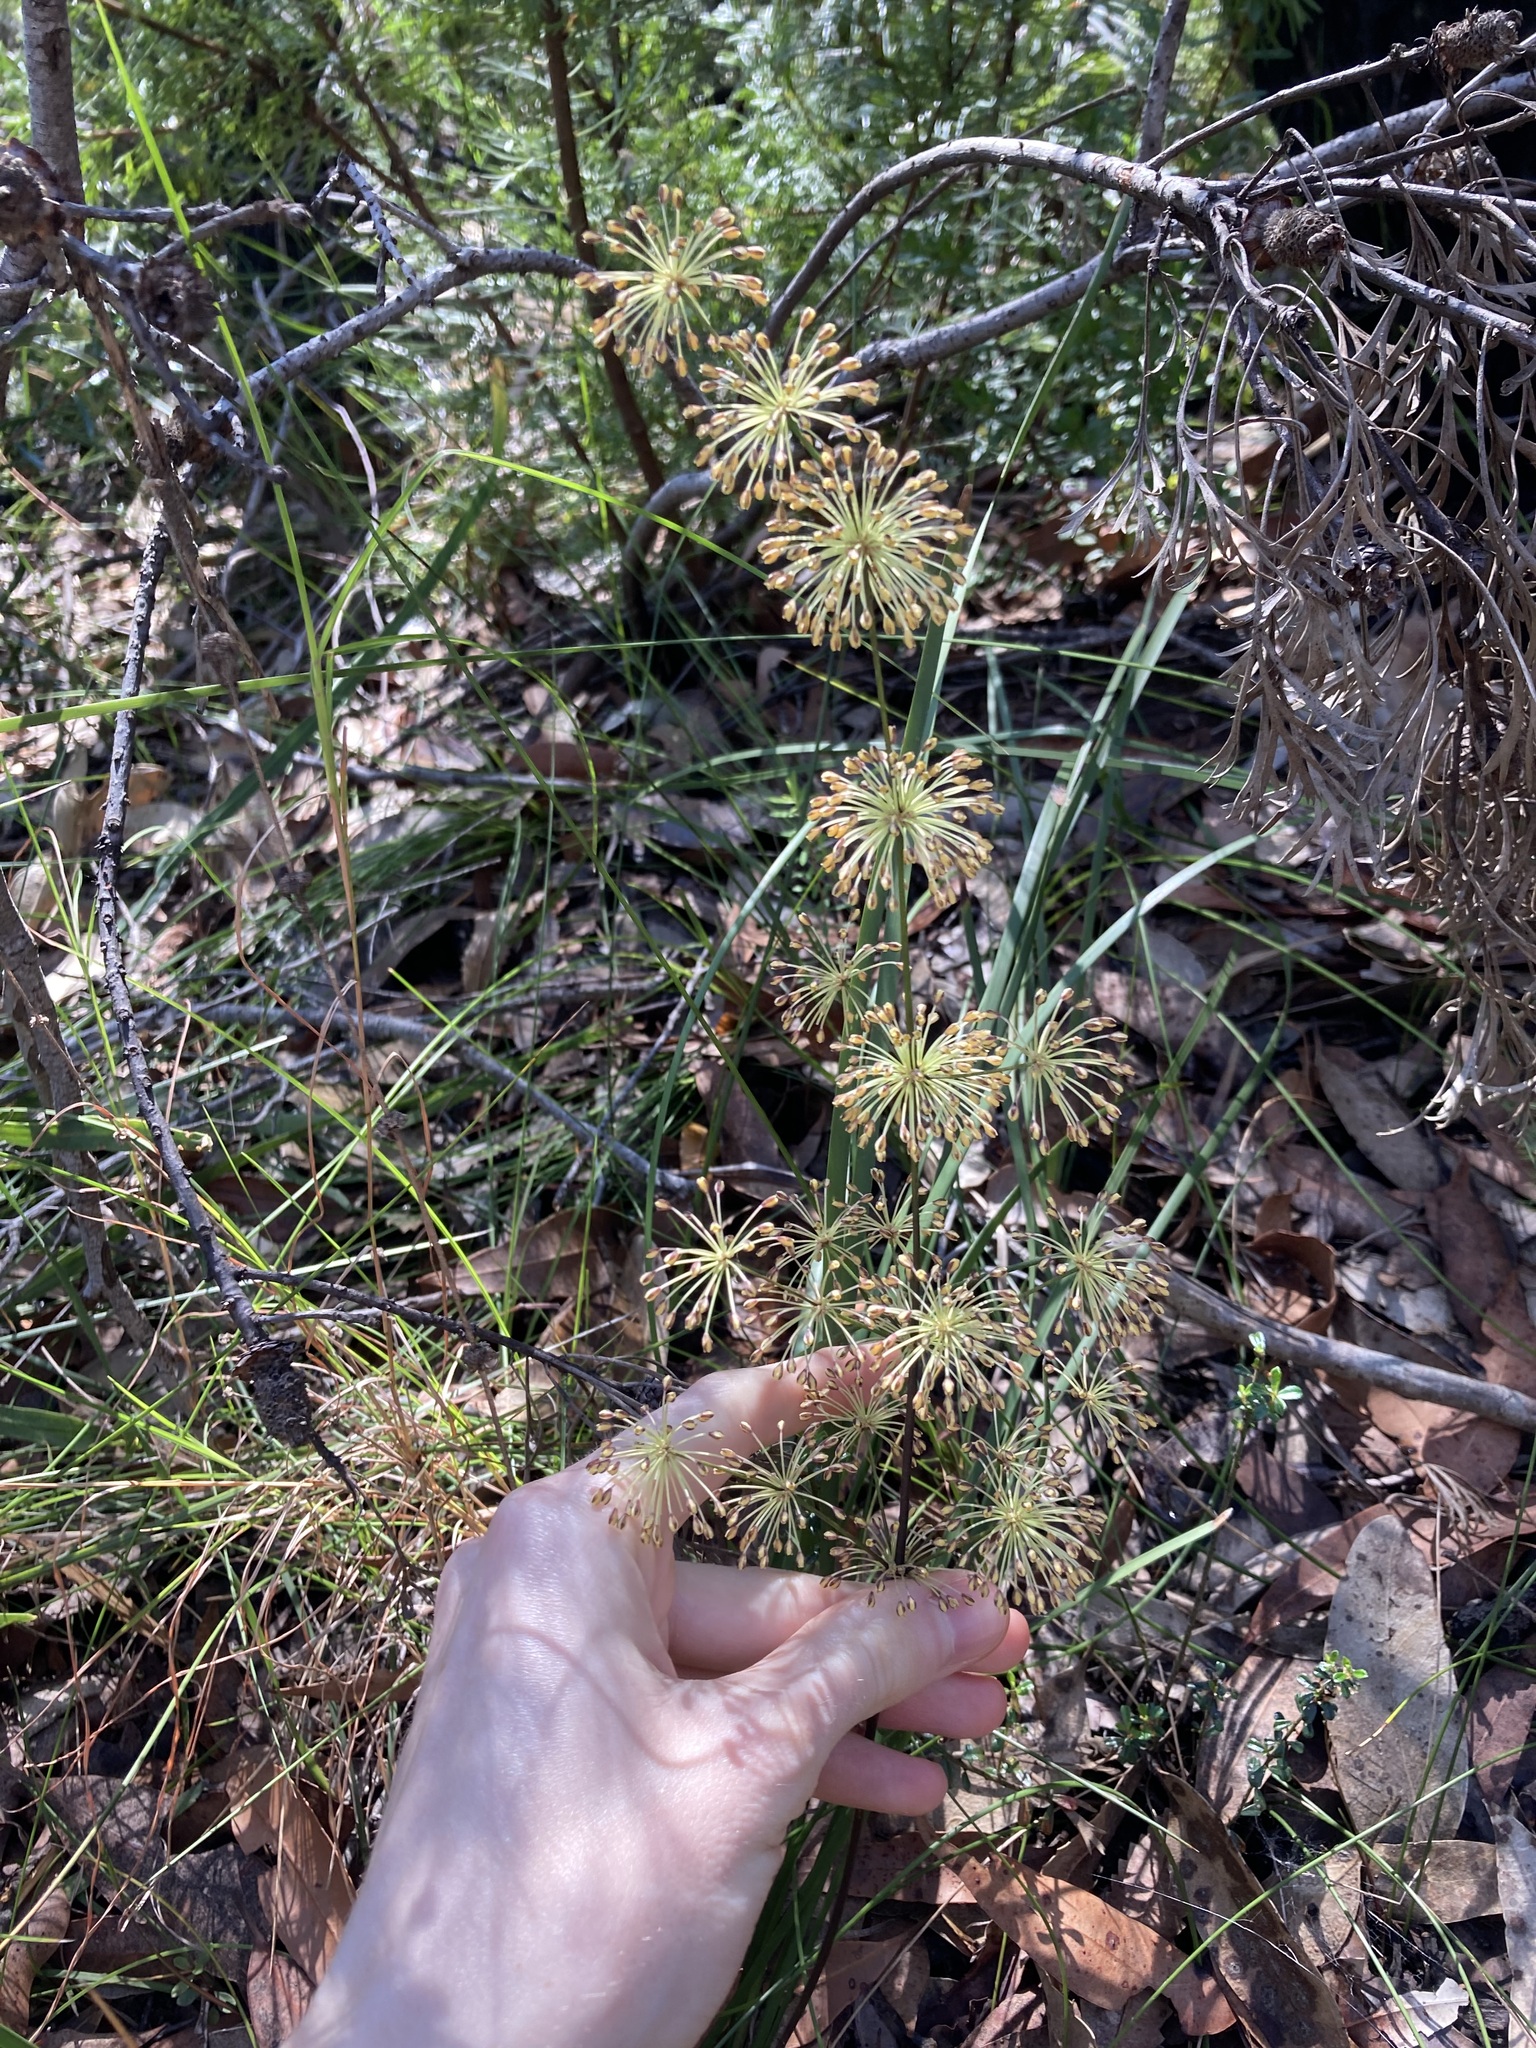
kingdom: Plantae
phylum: Tracheophyta
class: Liliopsida
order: Asparagales
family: Asparagaceae
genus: Lomandra
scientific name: Lomandra multiflora
